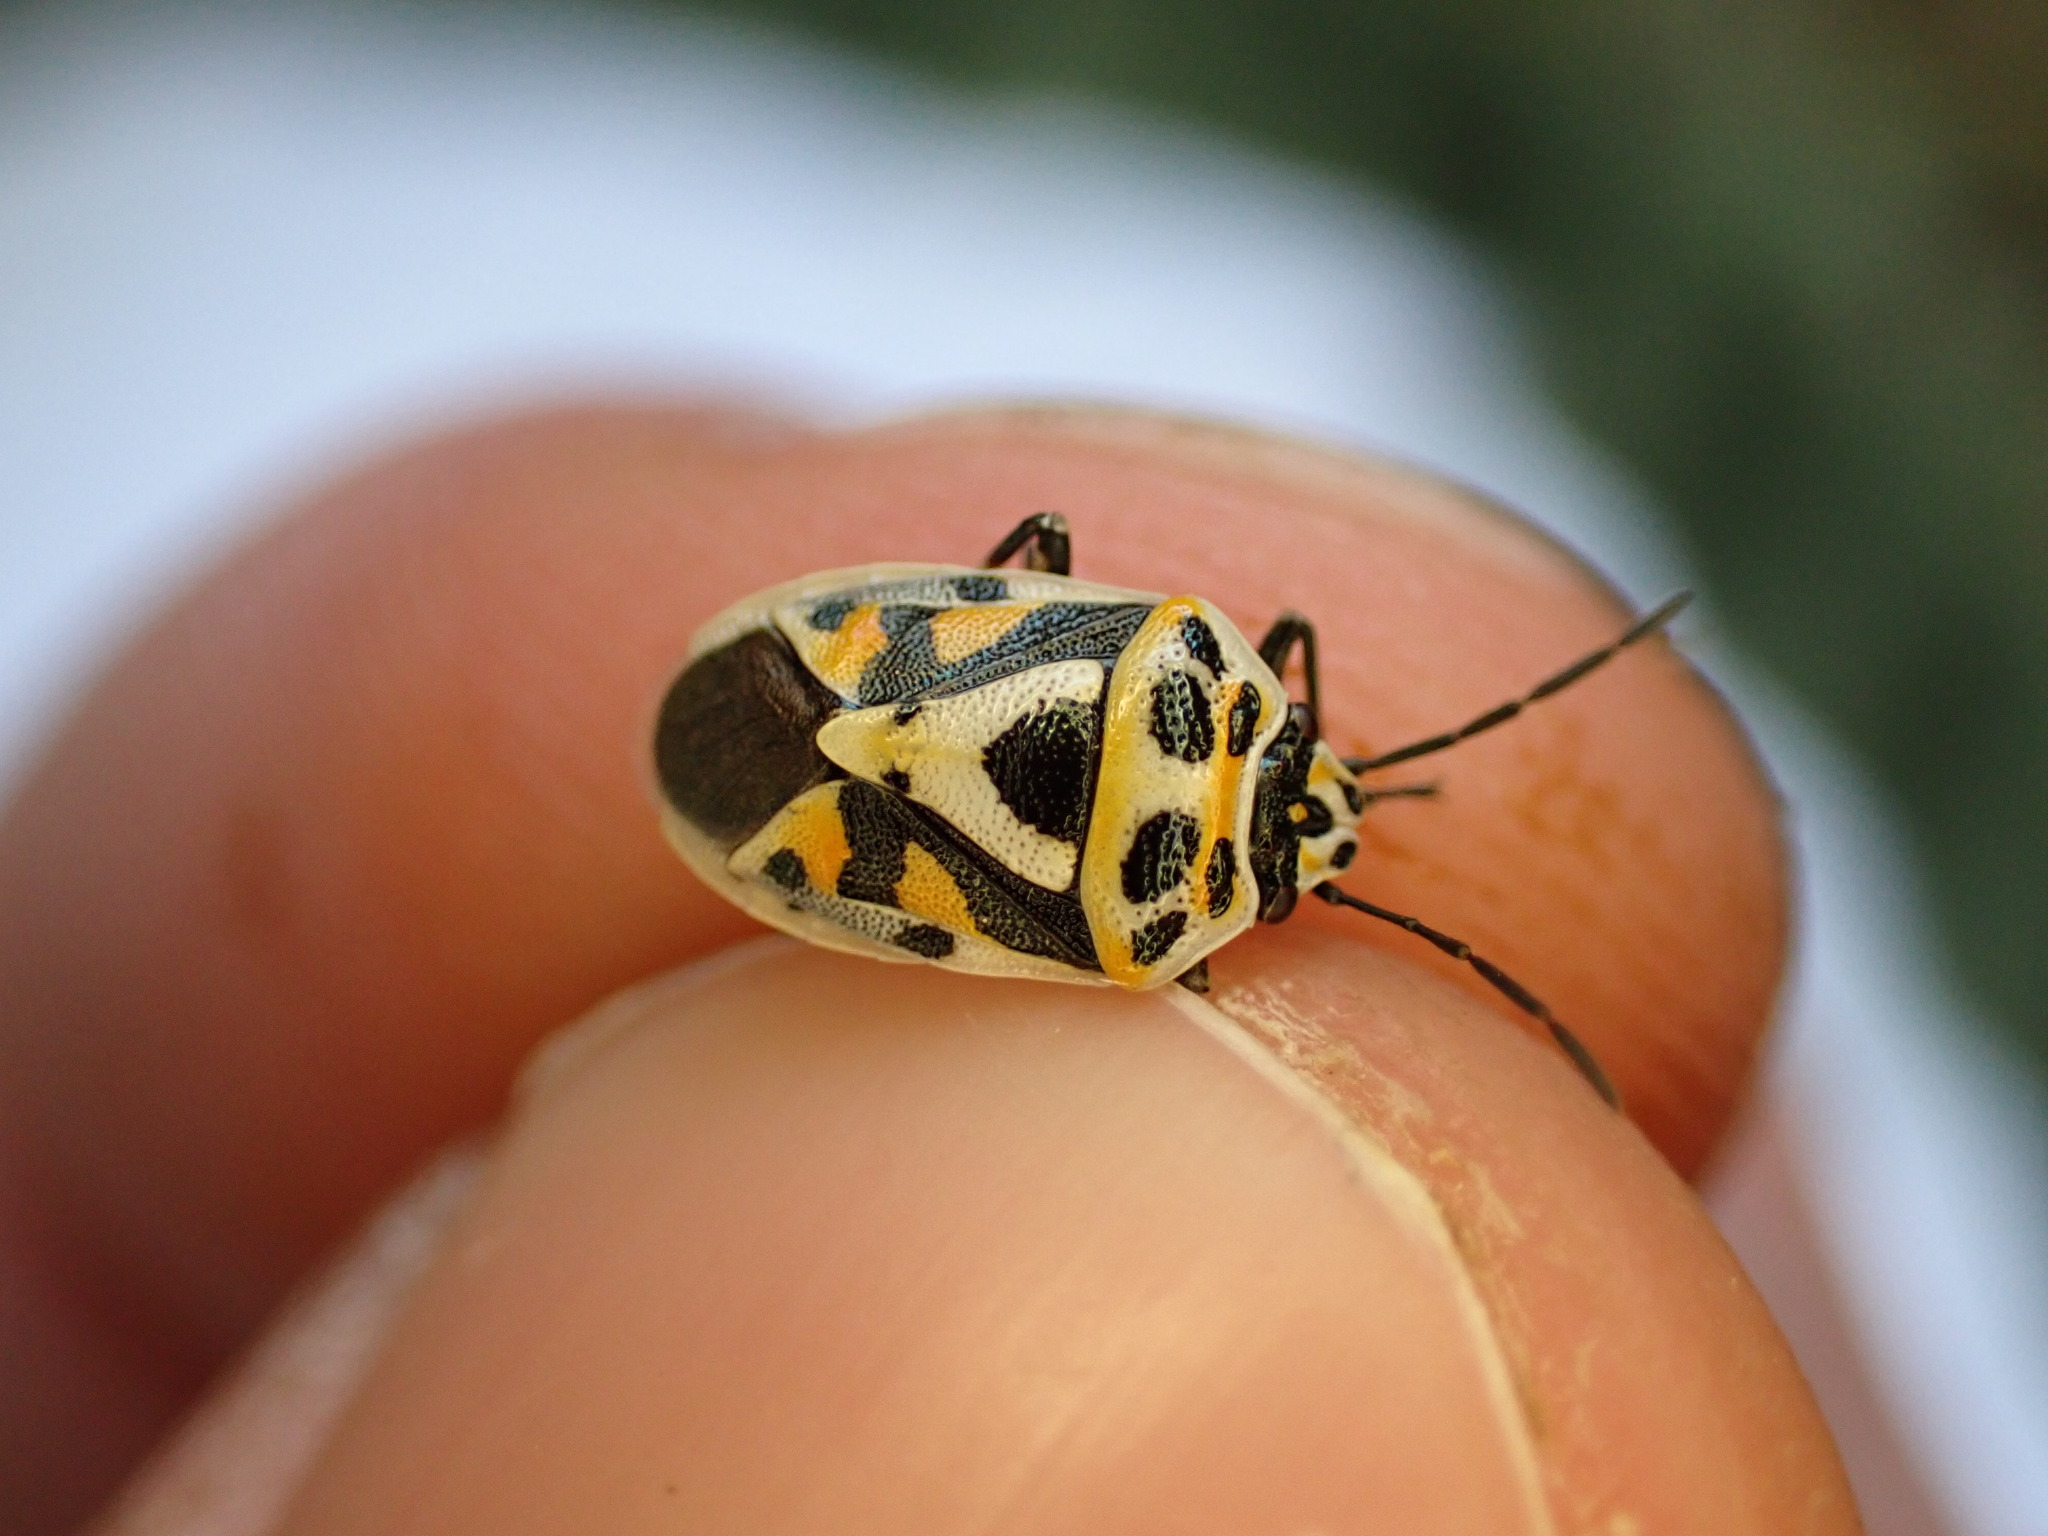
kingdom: Animalia
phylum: Arthropoda
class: Insecta
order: Hemiptera
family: Pentatomidae
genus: Eurydema
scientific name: Eurydema ornata
